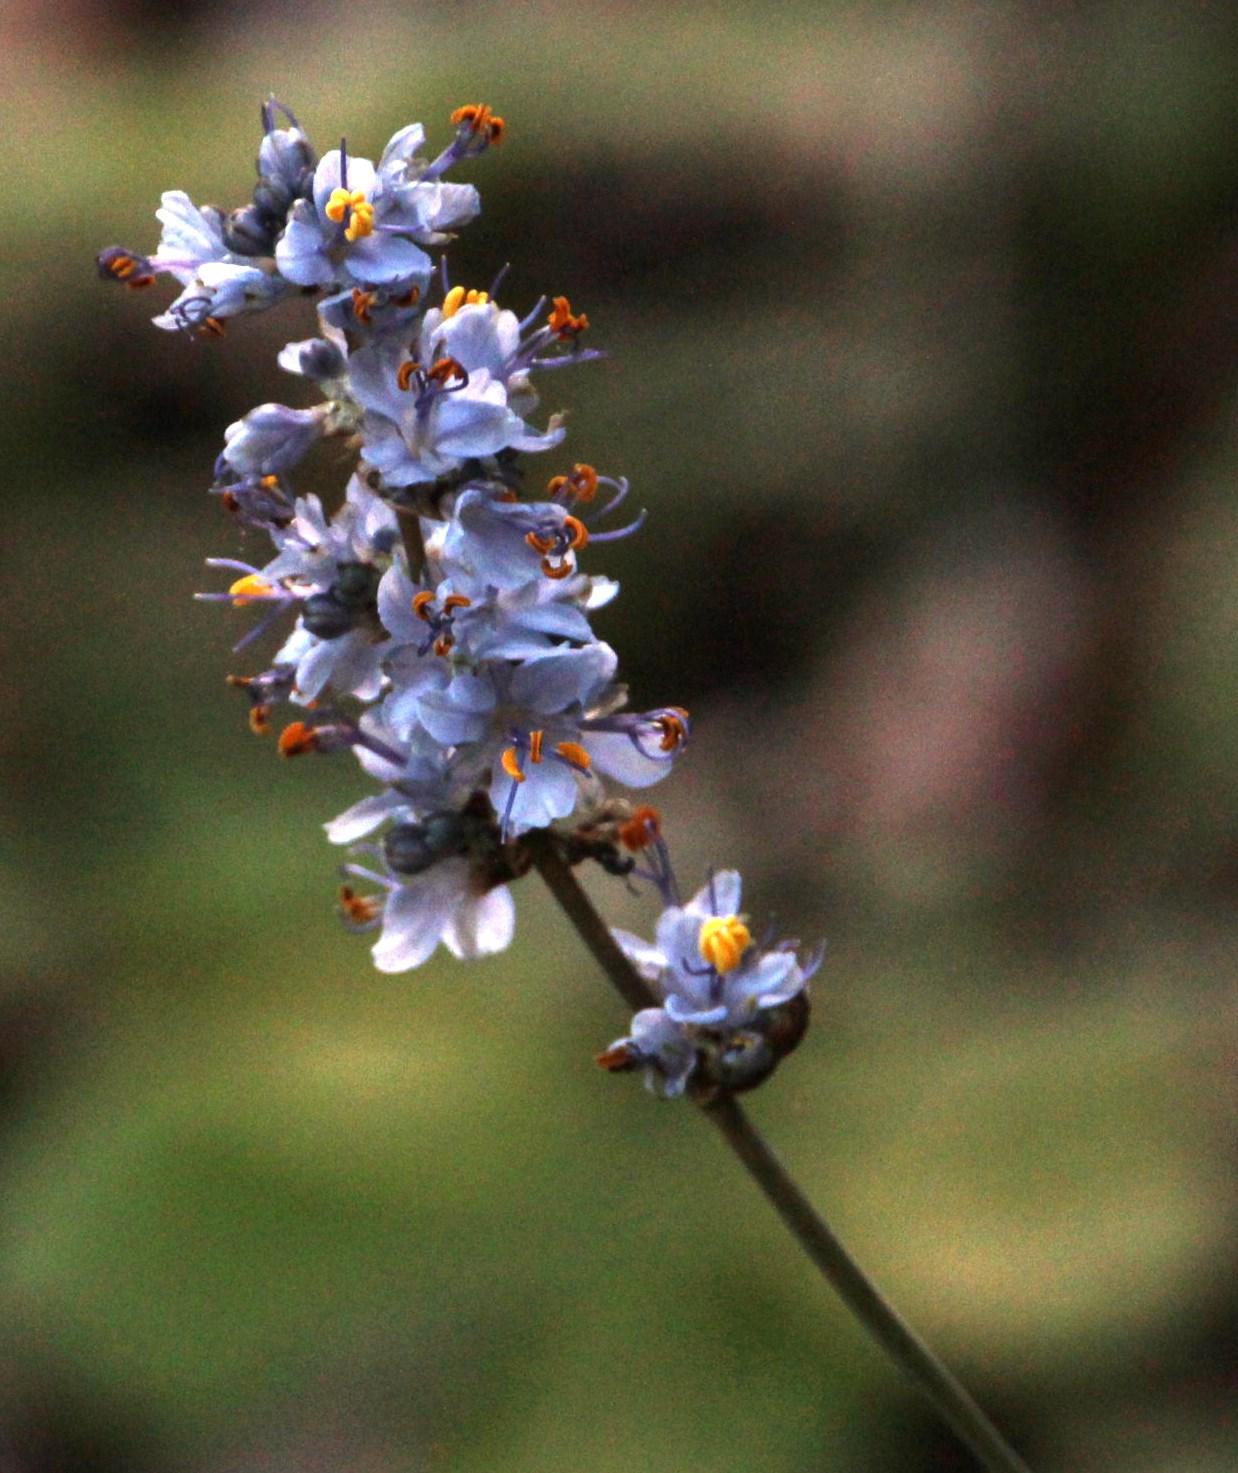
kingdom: Plantae
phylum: Tracheophyta
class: Liliopsida
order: Asparagales
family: Iridaceae
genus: Libertia
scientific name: Libertia sessiliflora
